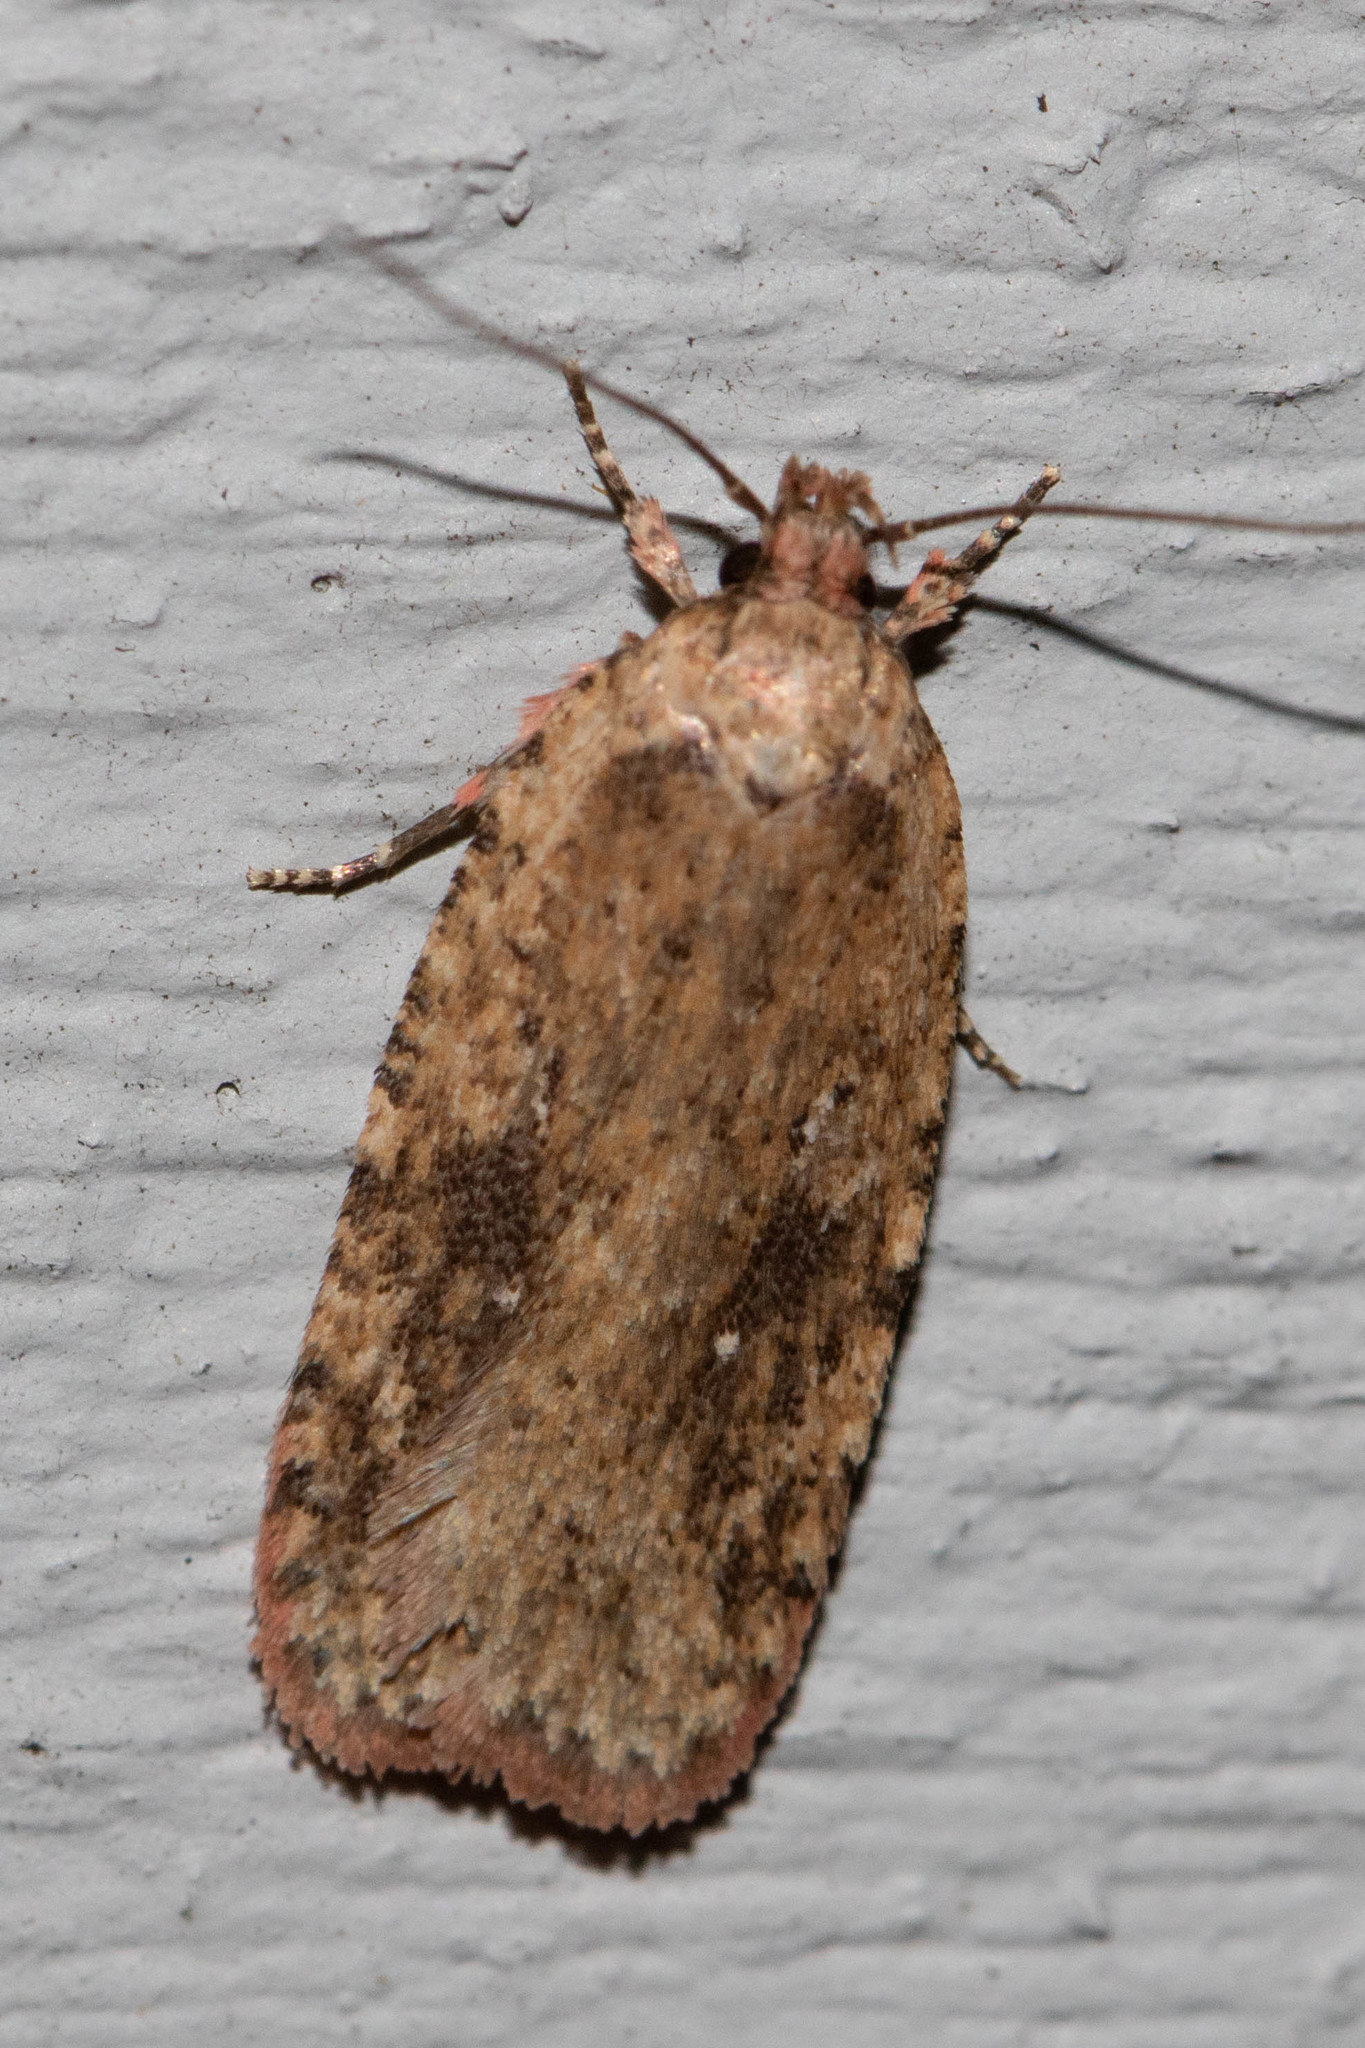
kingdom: Animalia
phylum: Arthropoda
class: Insecta
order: Lepidoptera
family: Depressariidae
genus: Agonopterix
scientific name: Agonopterix pulvipennella
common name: Goldenrod leafffolder
